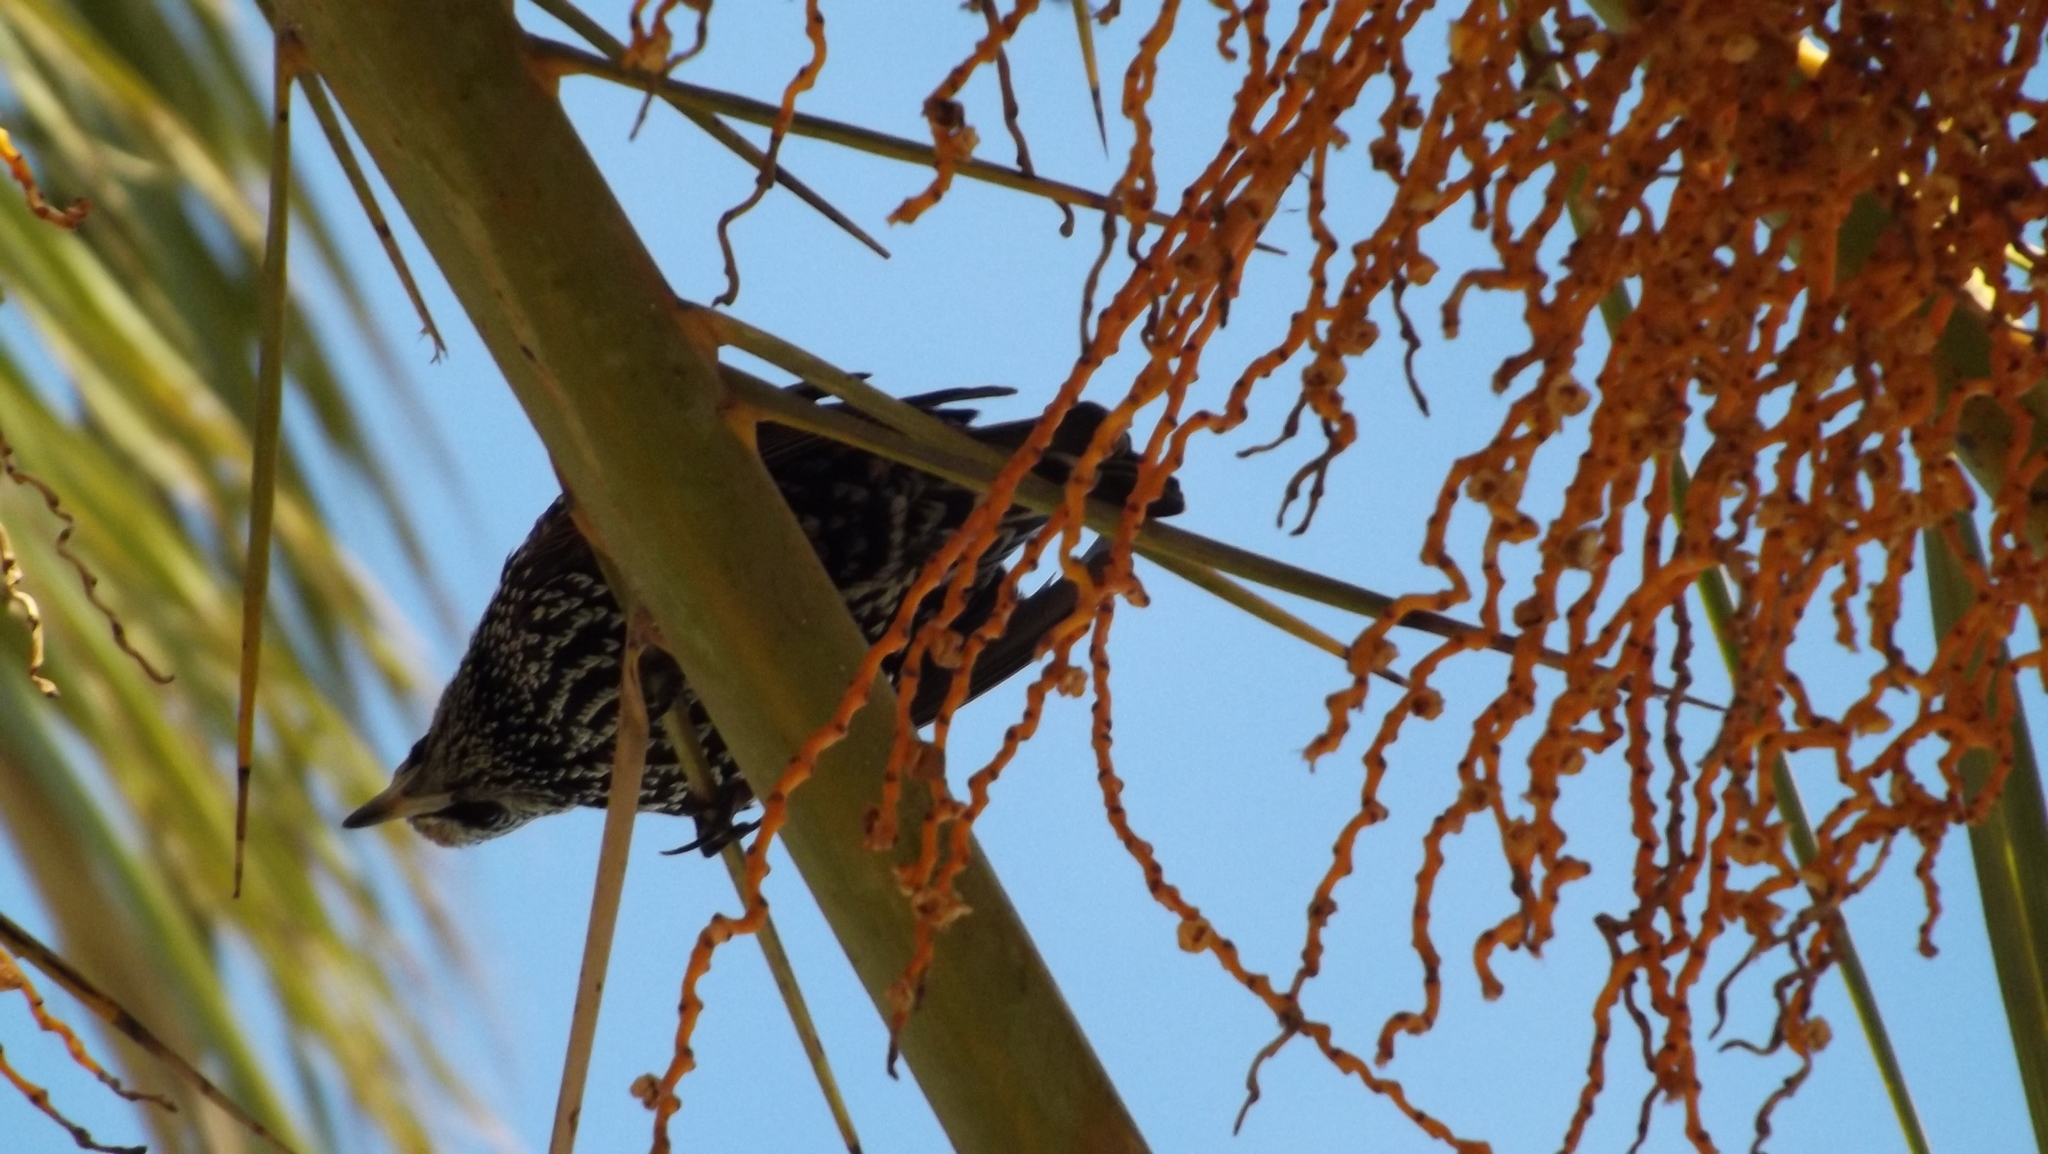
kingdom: Animalia
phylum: Chordata
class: Aves
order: Passeriformes
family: Sturnidae
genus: Sturnus
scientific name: Sturnus vulgaris
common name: Common starling
